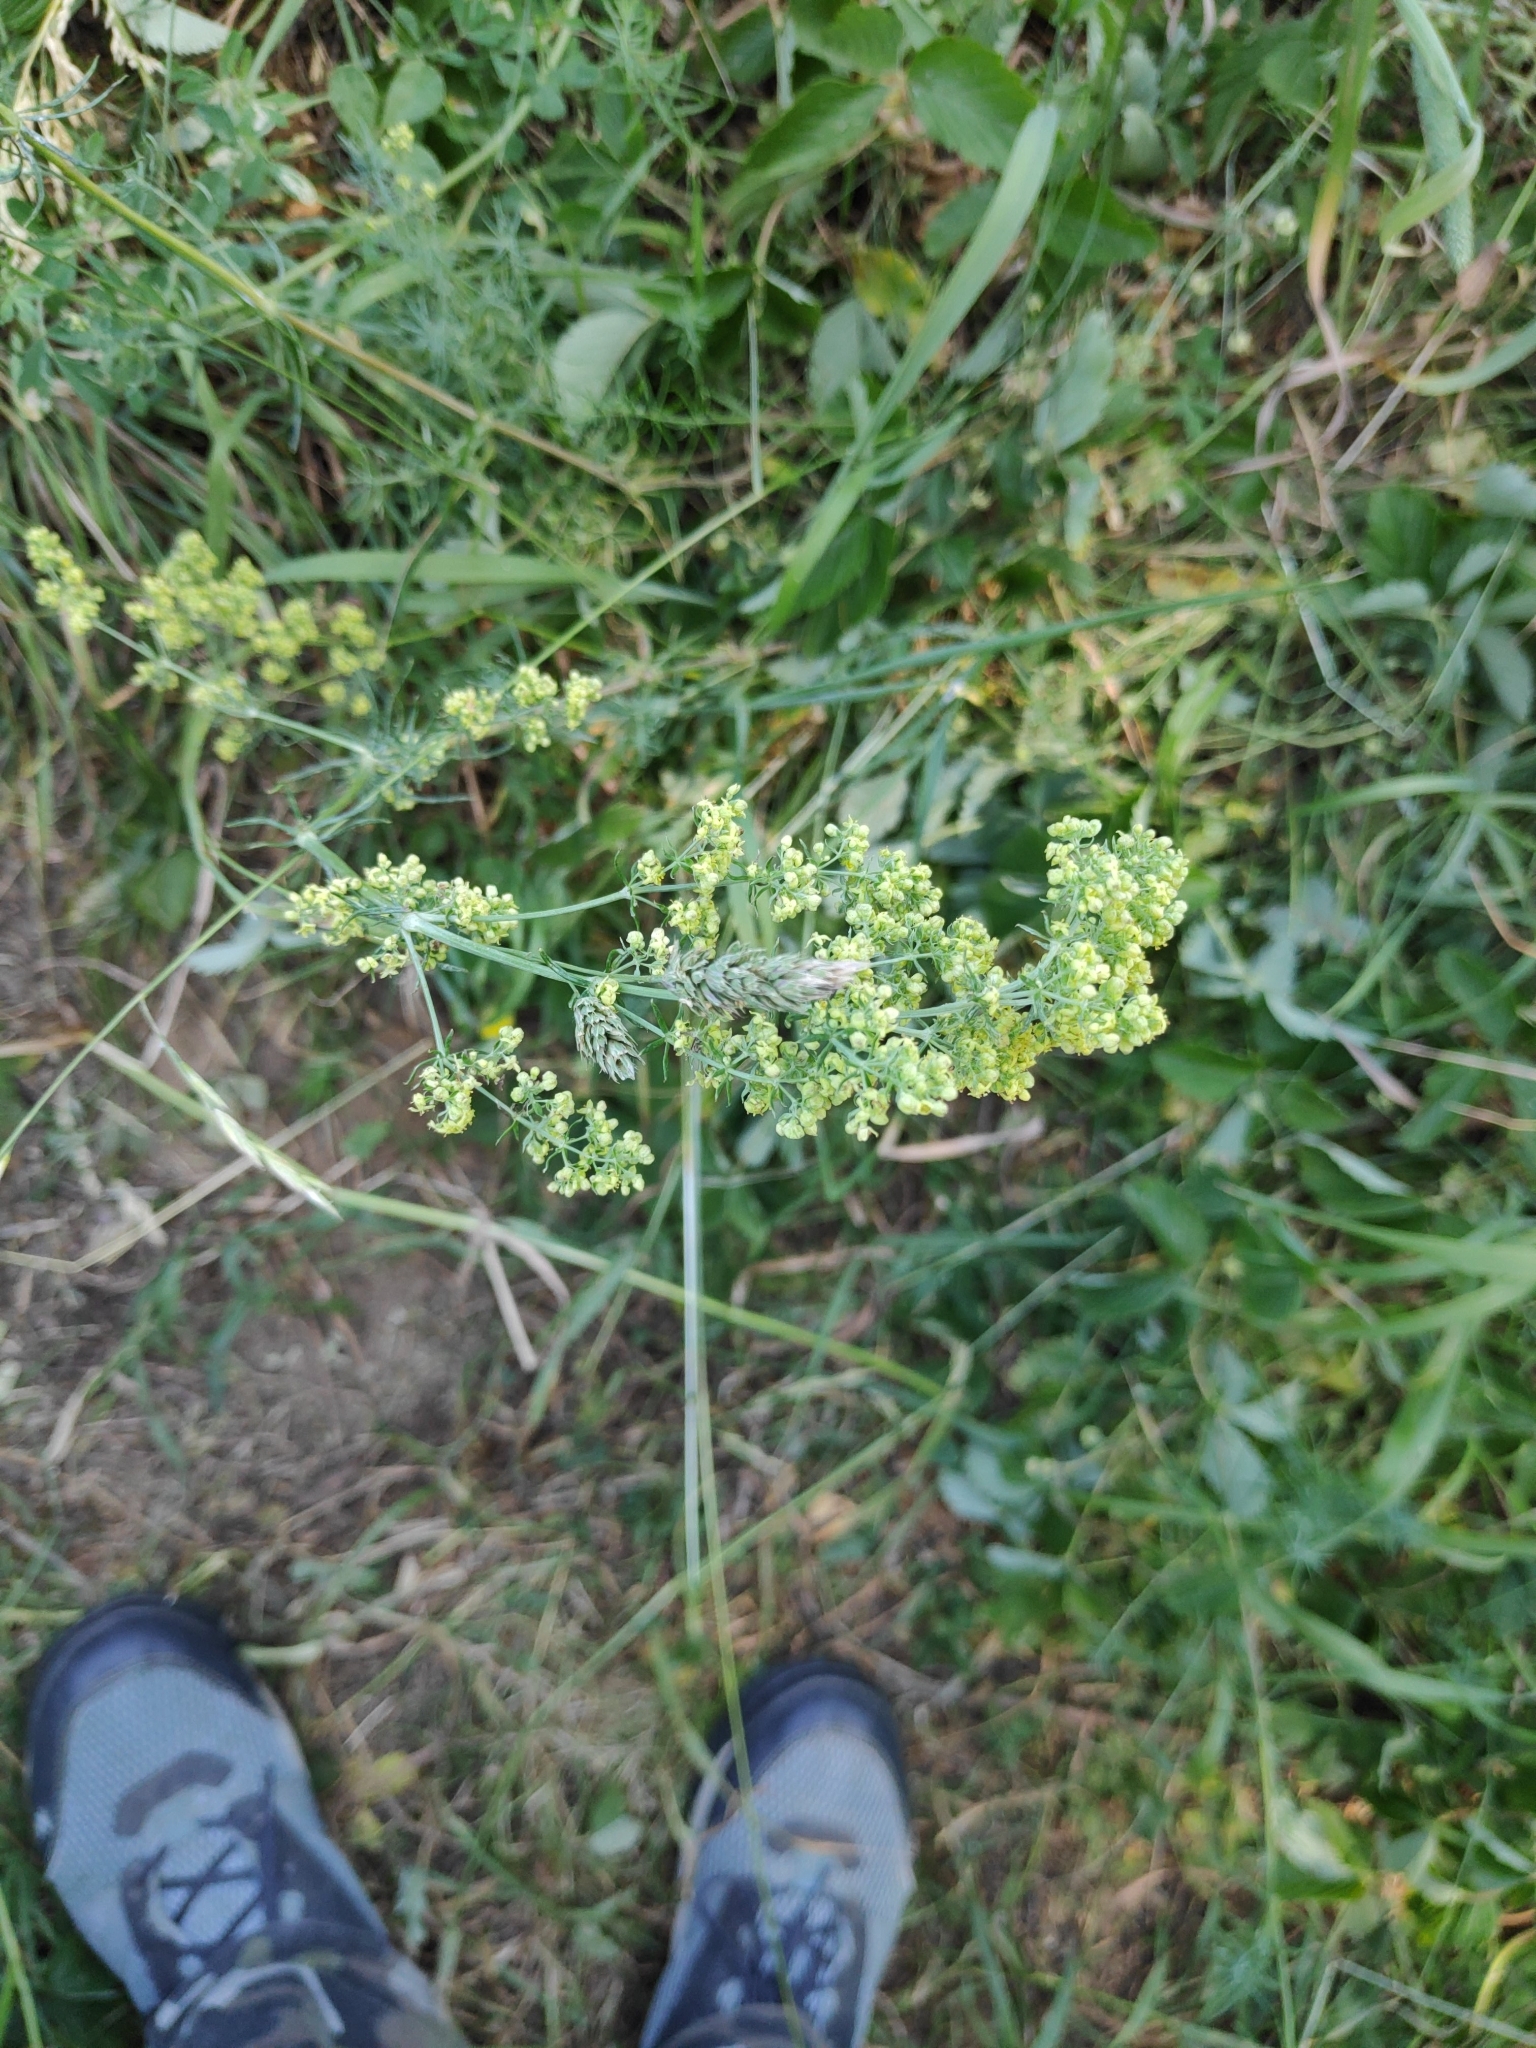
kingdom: Plantae
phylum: Tracheophyta
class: Magnoliopsida
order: Gentianales
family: Rubiaceae
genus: Galium
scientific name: Galium verum
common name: Lady's bedstraw
